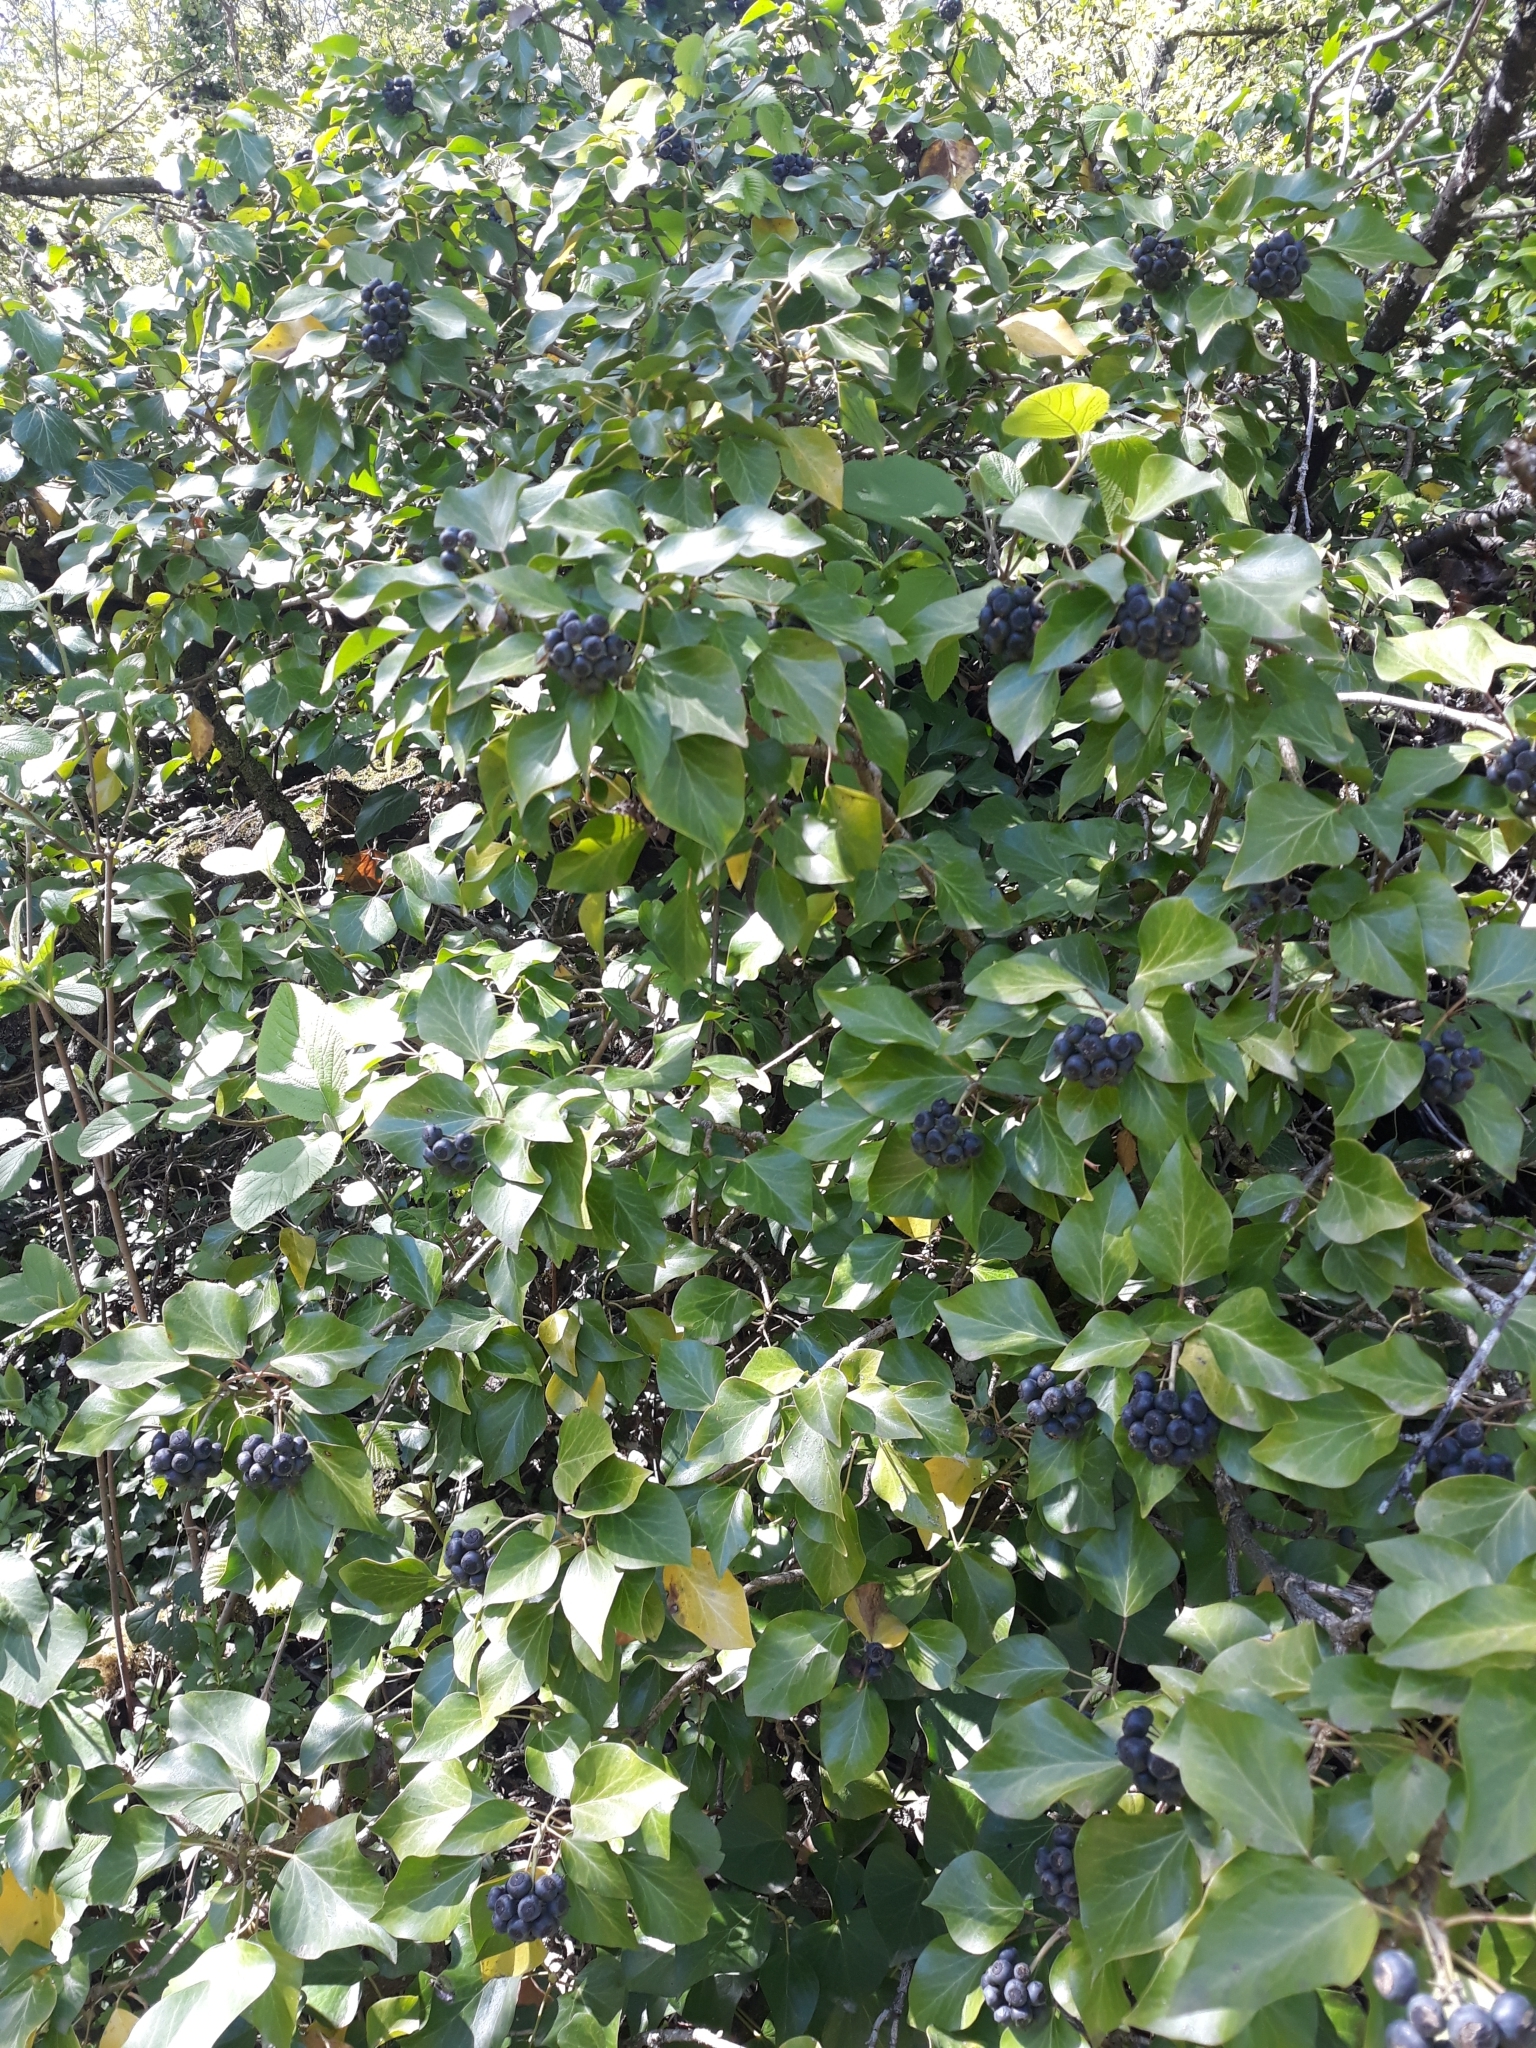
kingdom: Plantae
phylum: Tracheophyta
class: Magnoliopsida
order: Apiales
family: Araliaceae
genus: Hedera
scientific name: Hedera helix
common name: Ivy
